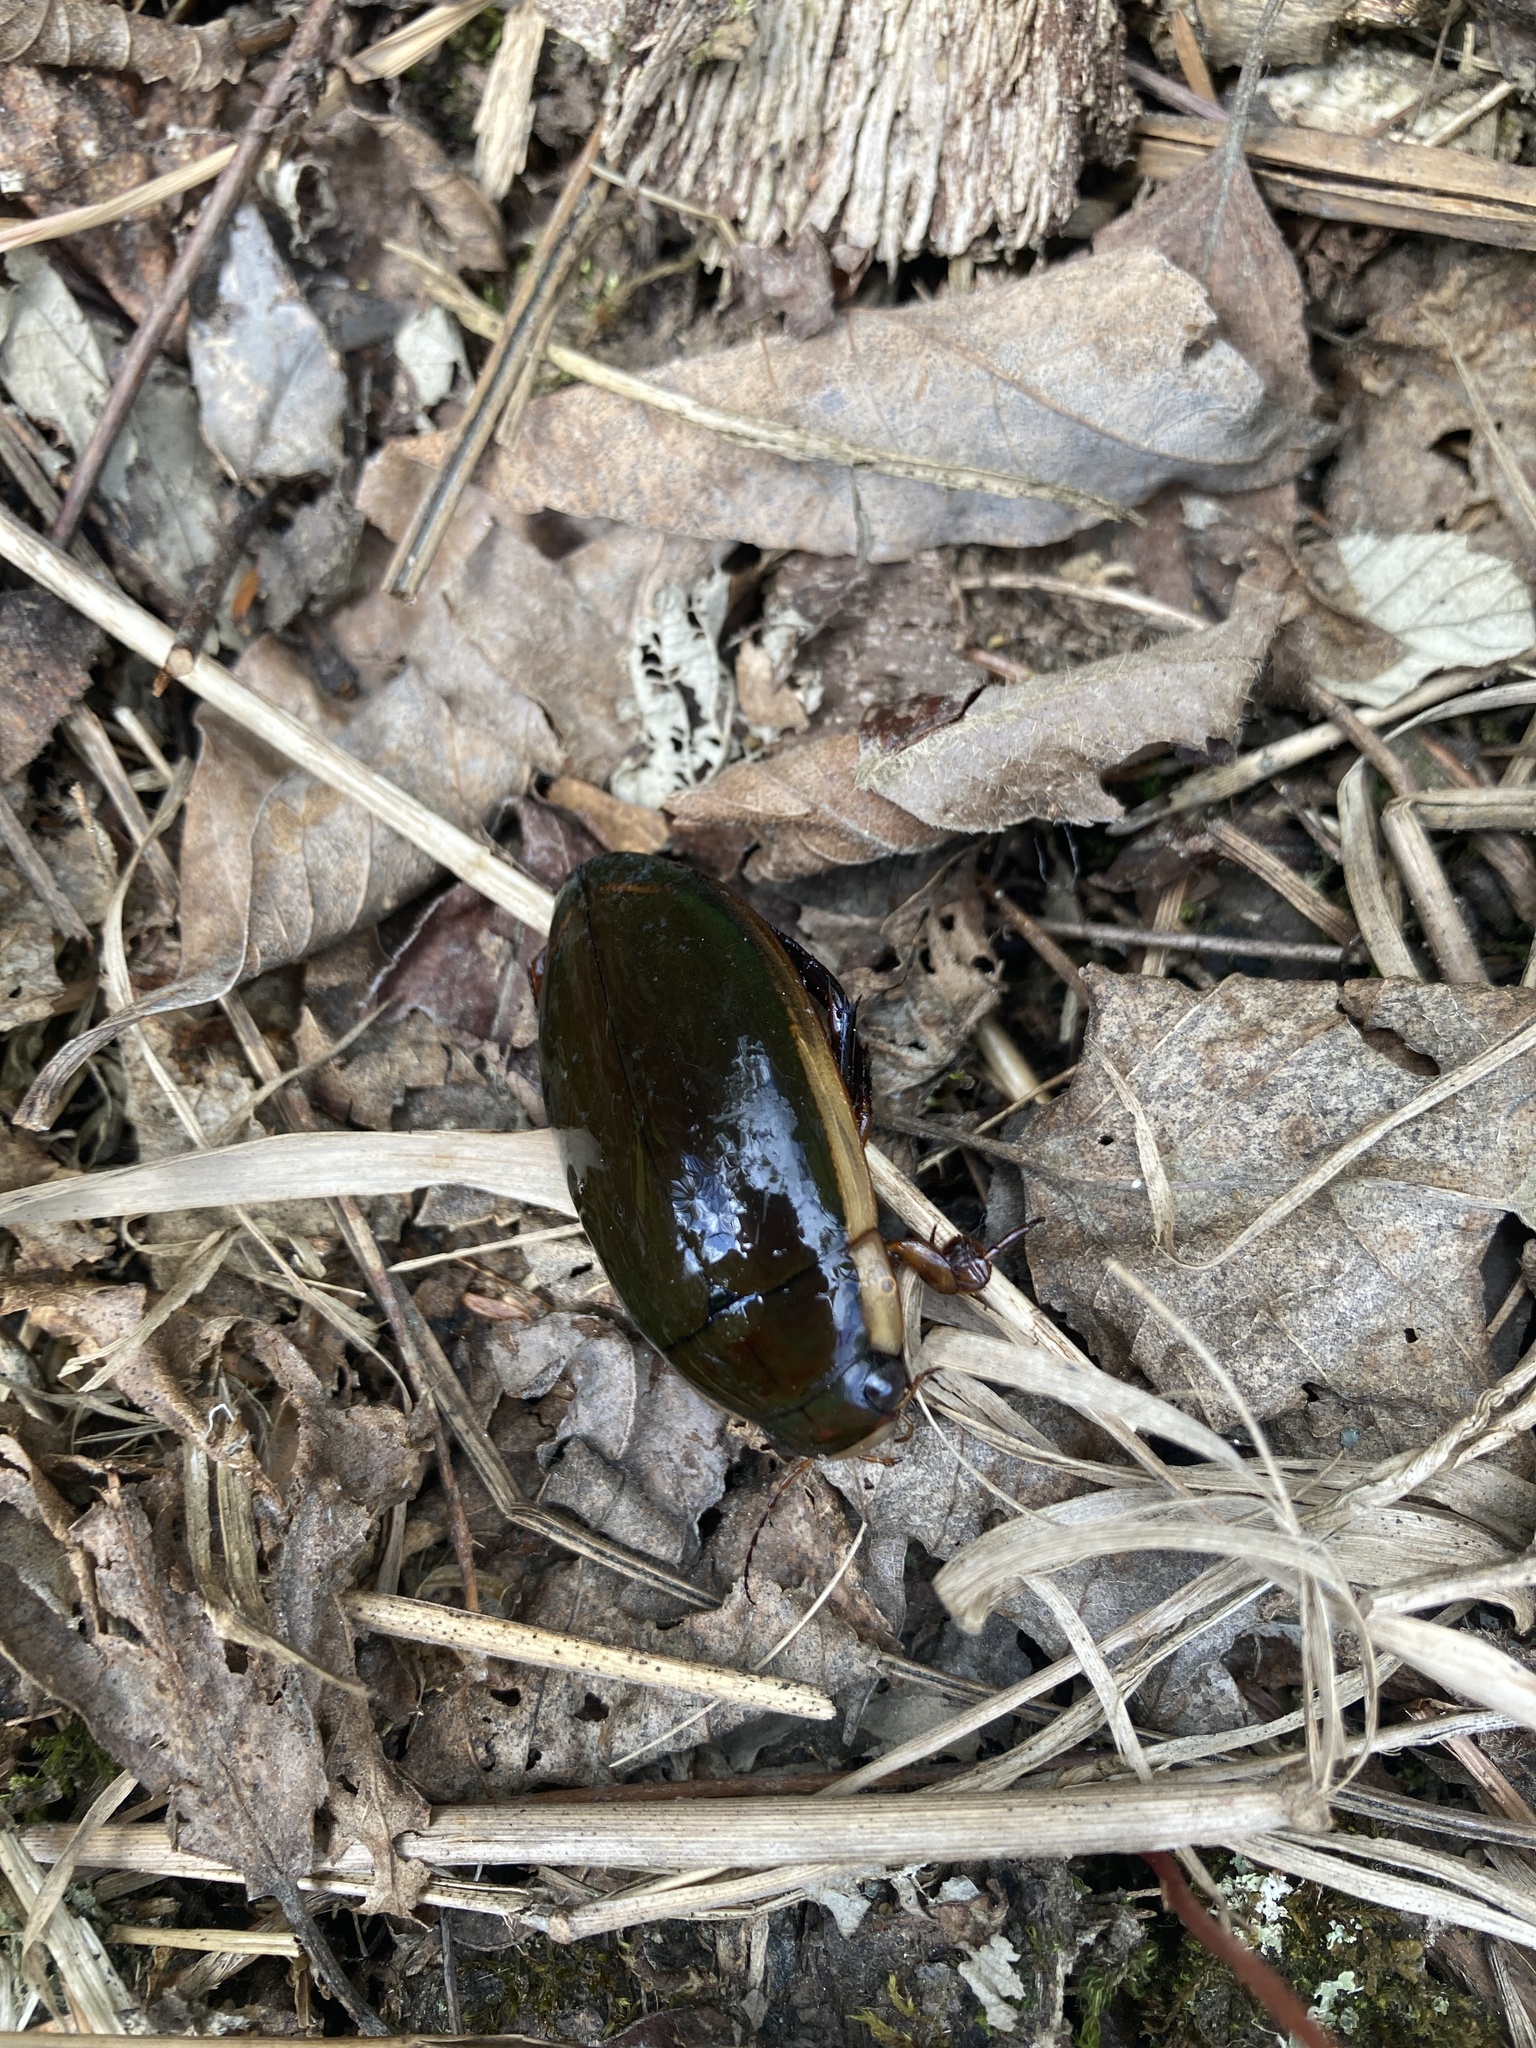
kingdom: Animalia
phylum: Arthropoda
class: Insecta
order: Coleoptera
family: Dytiscidae
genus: Dytiscus
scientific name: Dytiscus verticalis
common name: Vertical diving beetle
